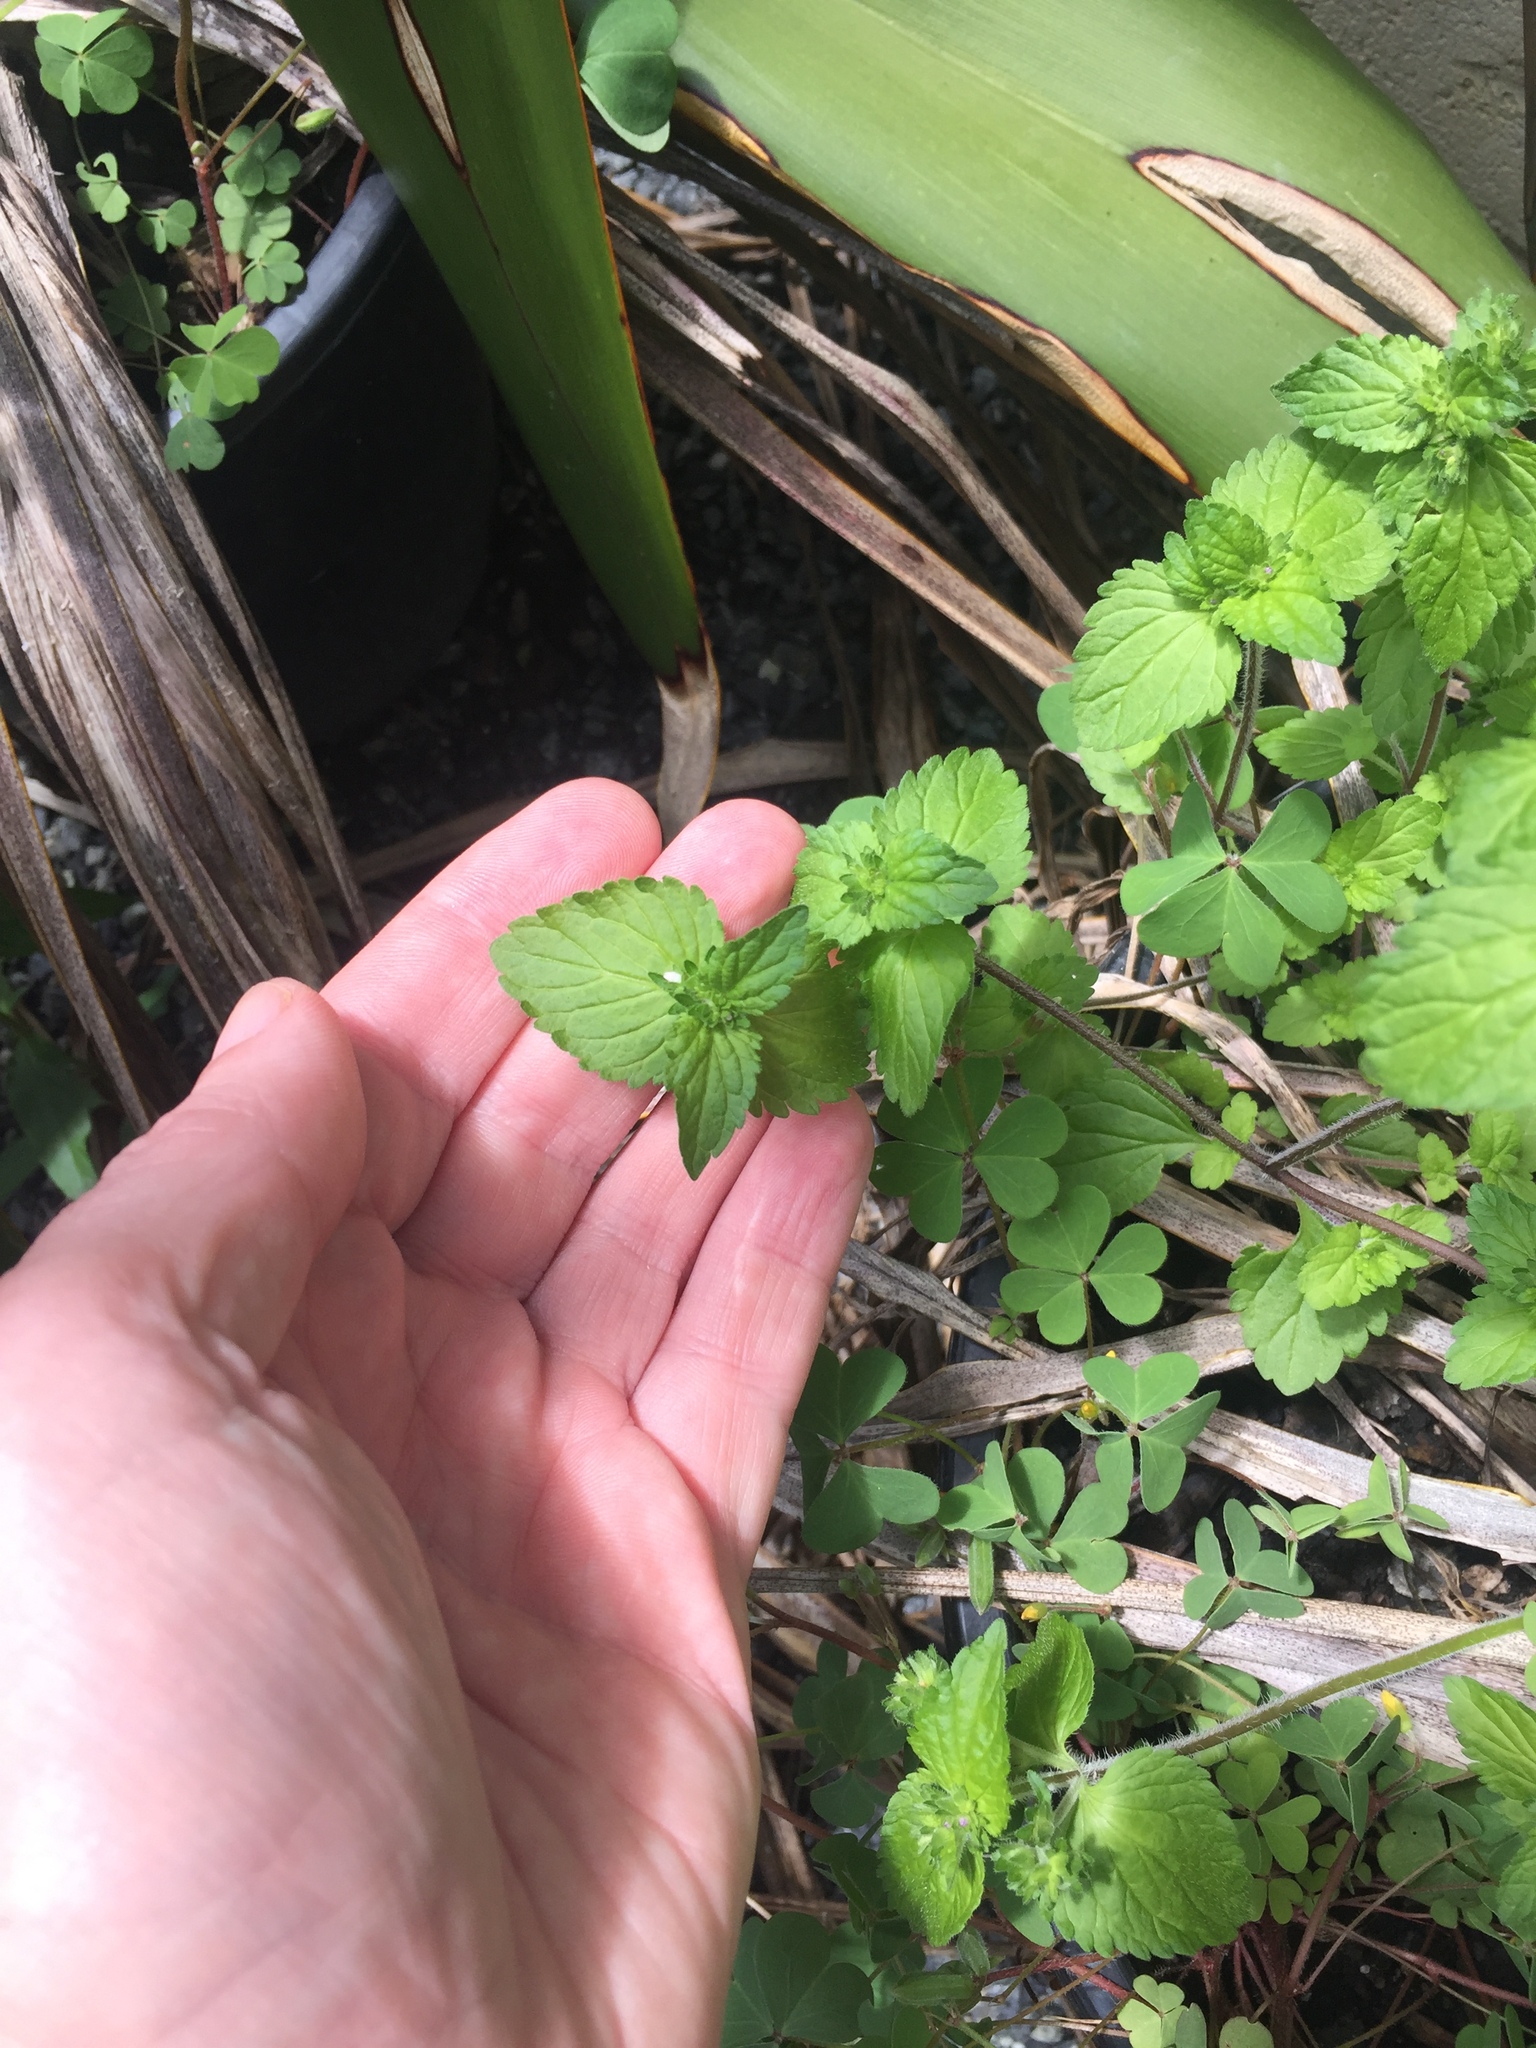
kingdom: Plantae
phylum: Tracheophyta
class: Magnoliopsida
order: Lamiales
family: Plantaginaceae
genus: Veronica
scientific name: Veronica javanica
